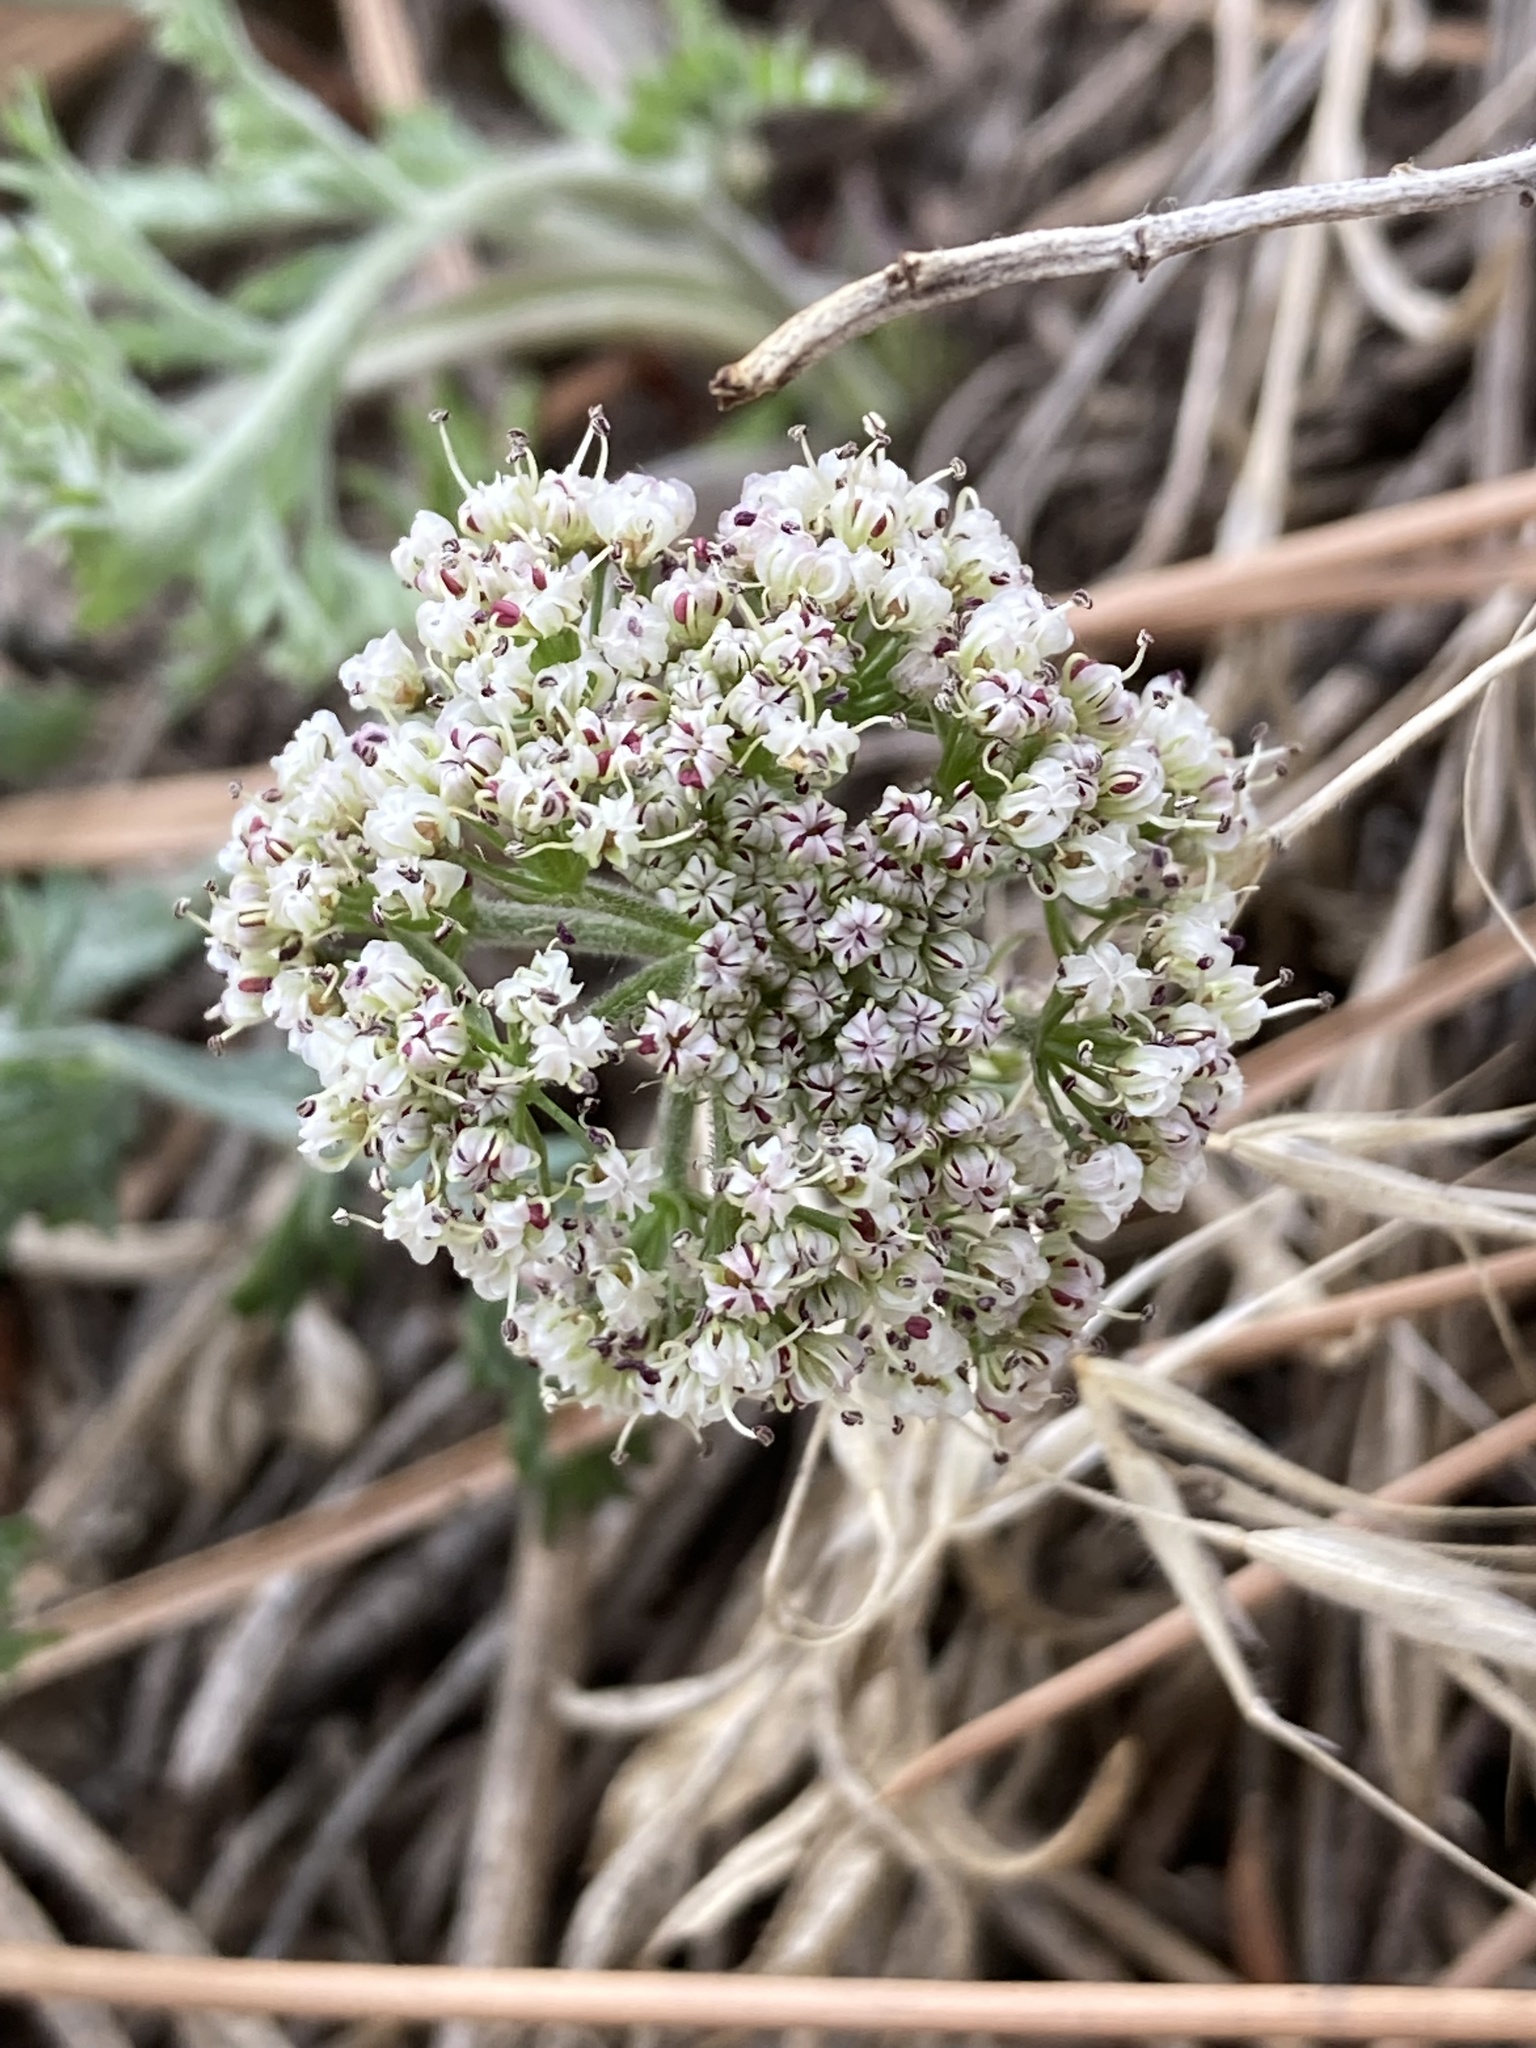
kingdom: Plantae
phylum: Tracheophyta
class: Magnoliopsida
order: Apiales
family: Apiaceae
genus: Lomatium
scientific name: Lomatium orientale
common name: Eastern cous
